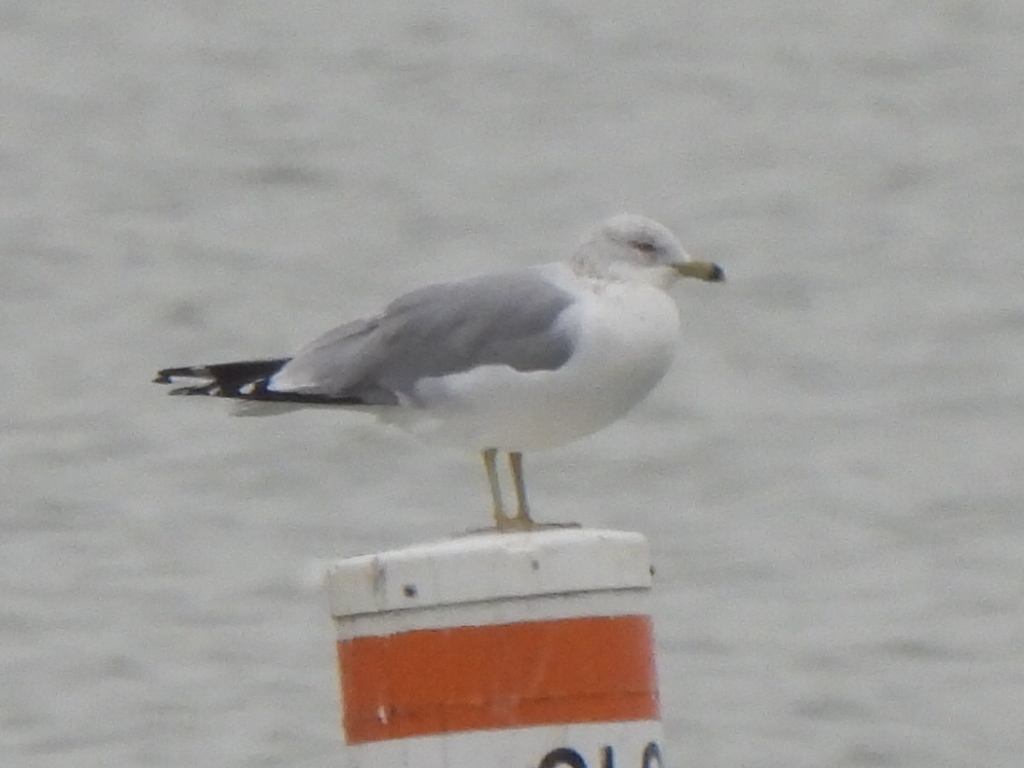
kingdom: Animalia
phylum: Chordata
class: Aves
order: Charadriiformes
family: Laridae
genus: Larus
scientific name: Larus delawarensis
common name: Ring-billed gull
